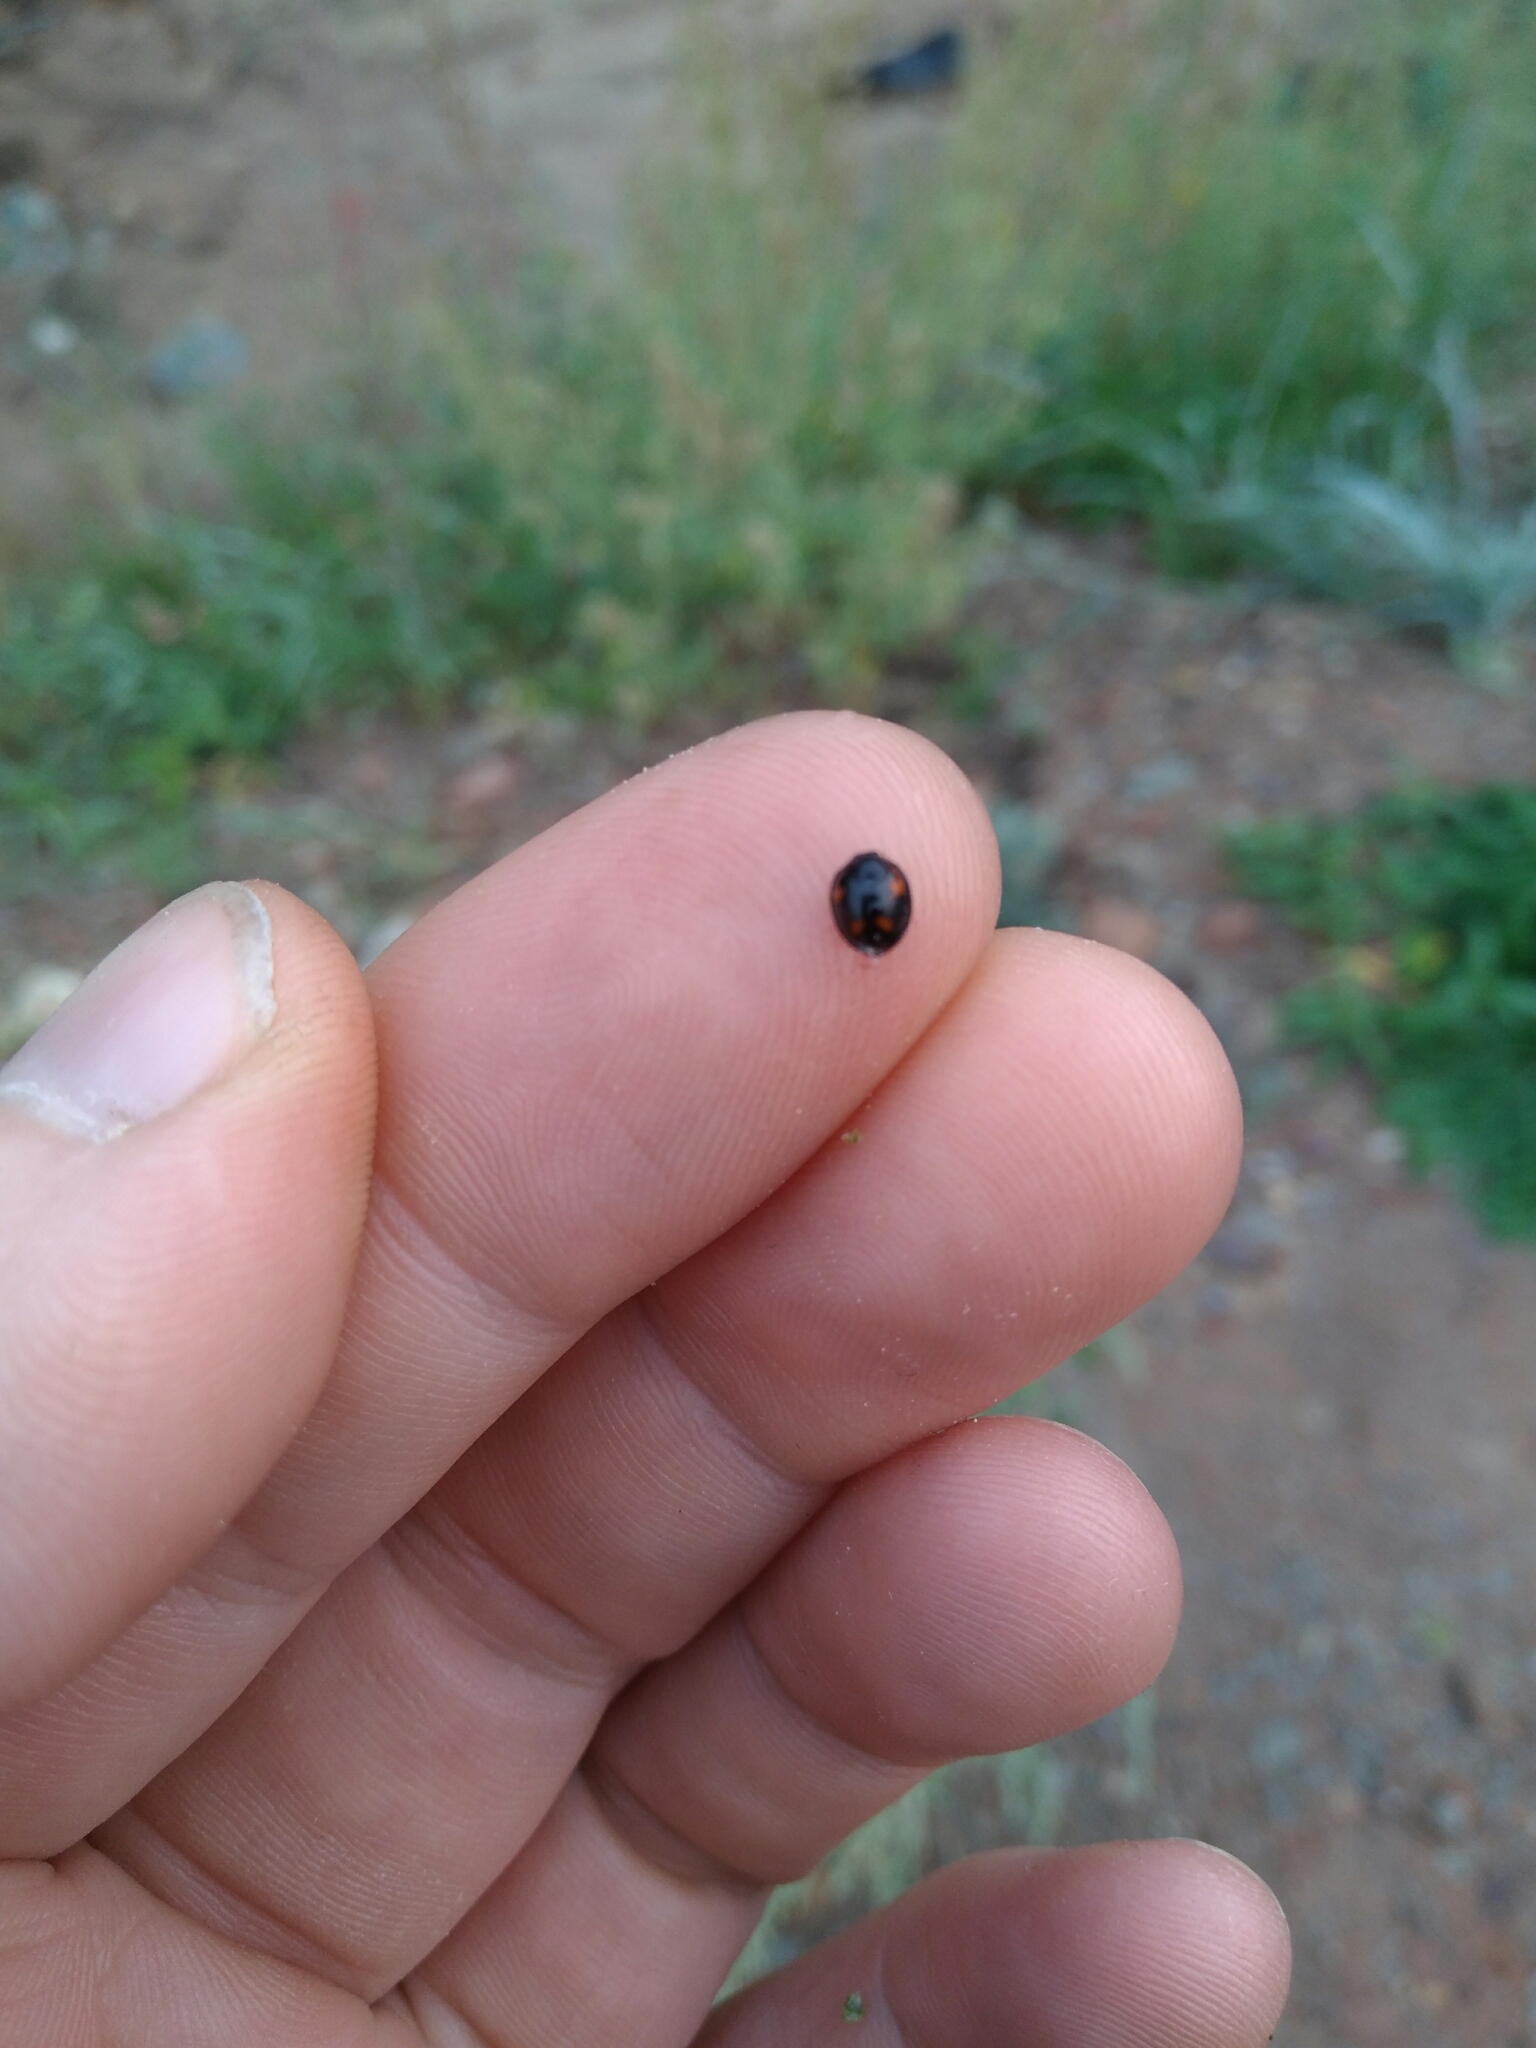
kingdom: Animalia
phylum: Arthropoda
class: Insecta
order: Coleoptera
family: Coccinellidae
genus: Brumus
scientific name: Brumus quadripustulatus
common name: Ladybird beetle
